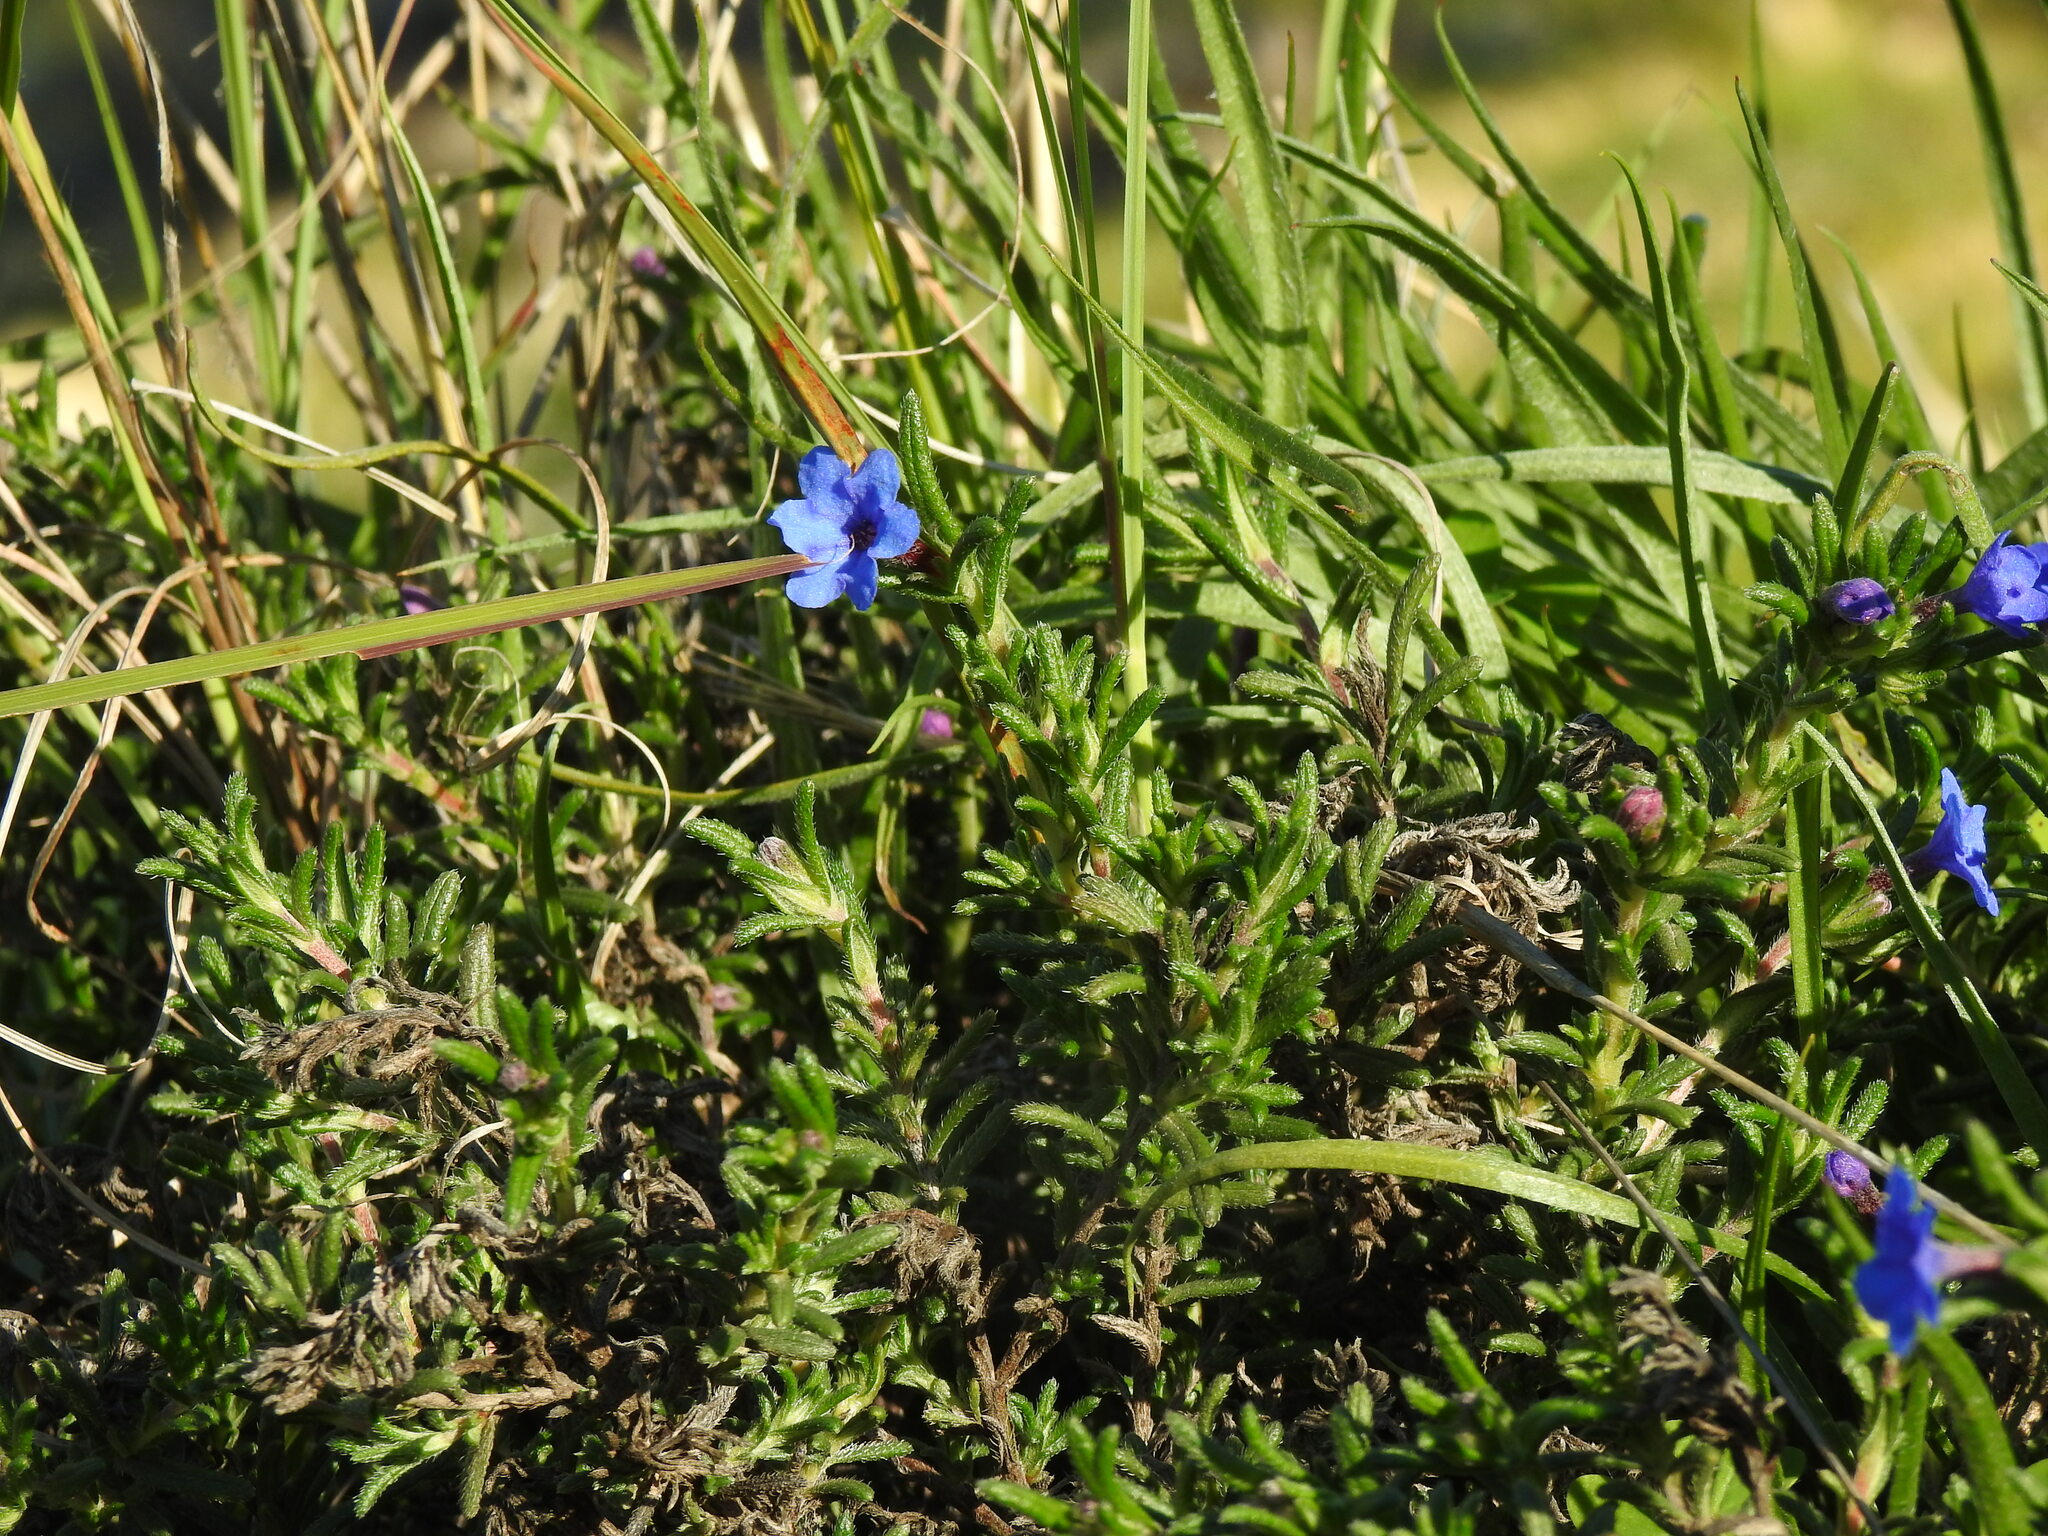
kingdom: Plantae
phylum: Tracheophyta
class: Magnoliopsida
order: Boraginales
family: Boraginaceae
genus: Glandora
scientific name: Glandora prostrata
